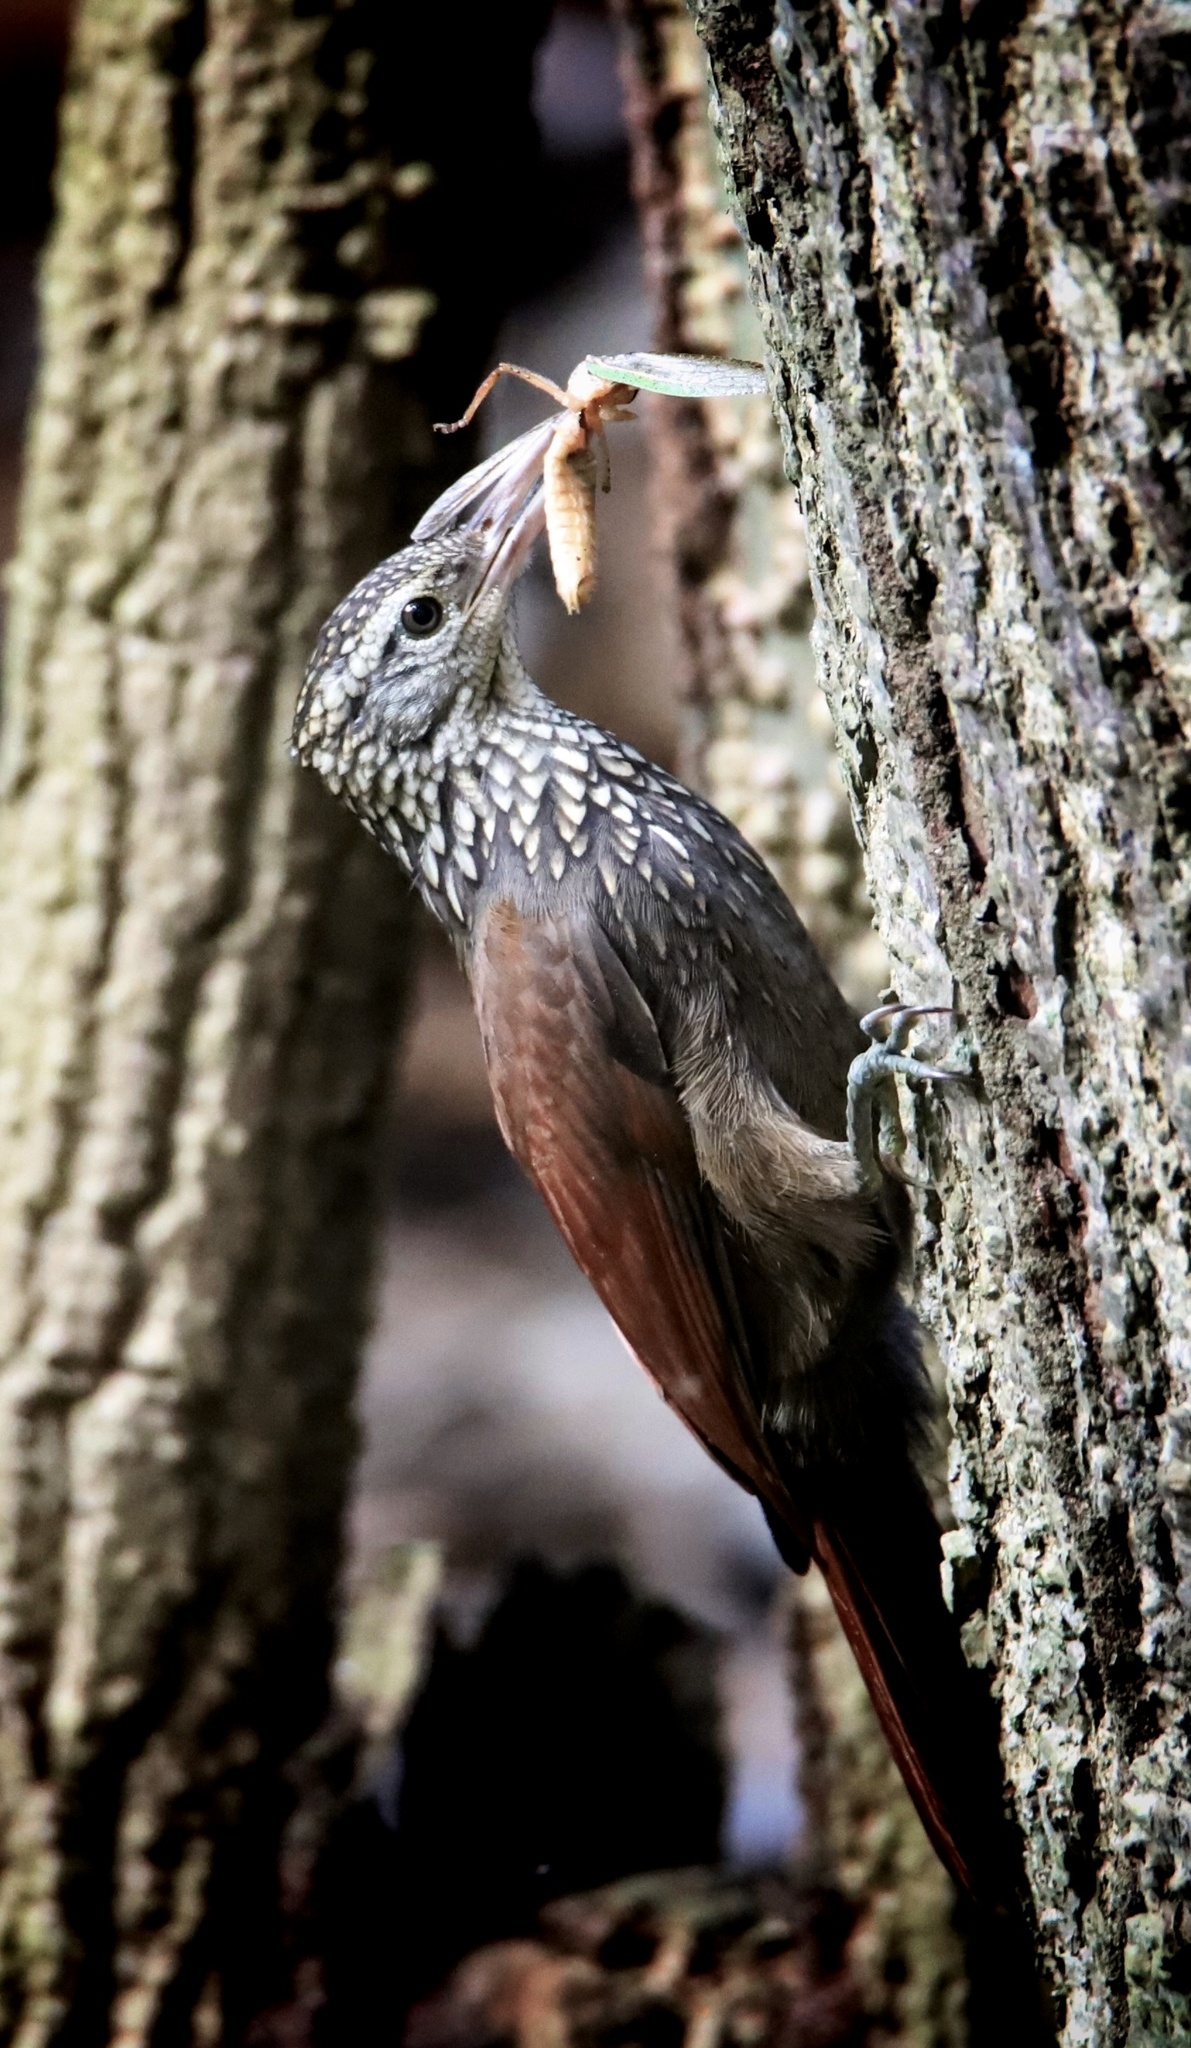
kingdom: Animalia
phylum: Chordata
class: Aves
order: Passeriformes
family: Furnariidae
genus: Xiphorhynchus
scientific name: Xiphorhynchus picus
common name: Straight-billed woodcreeper
